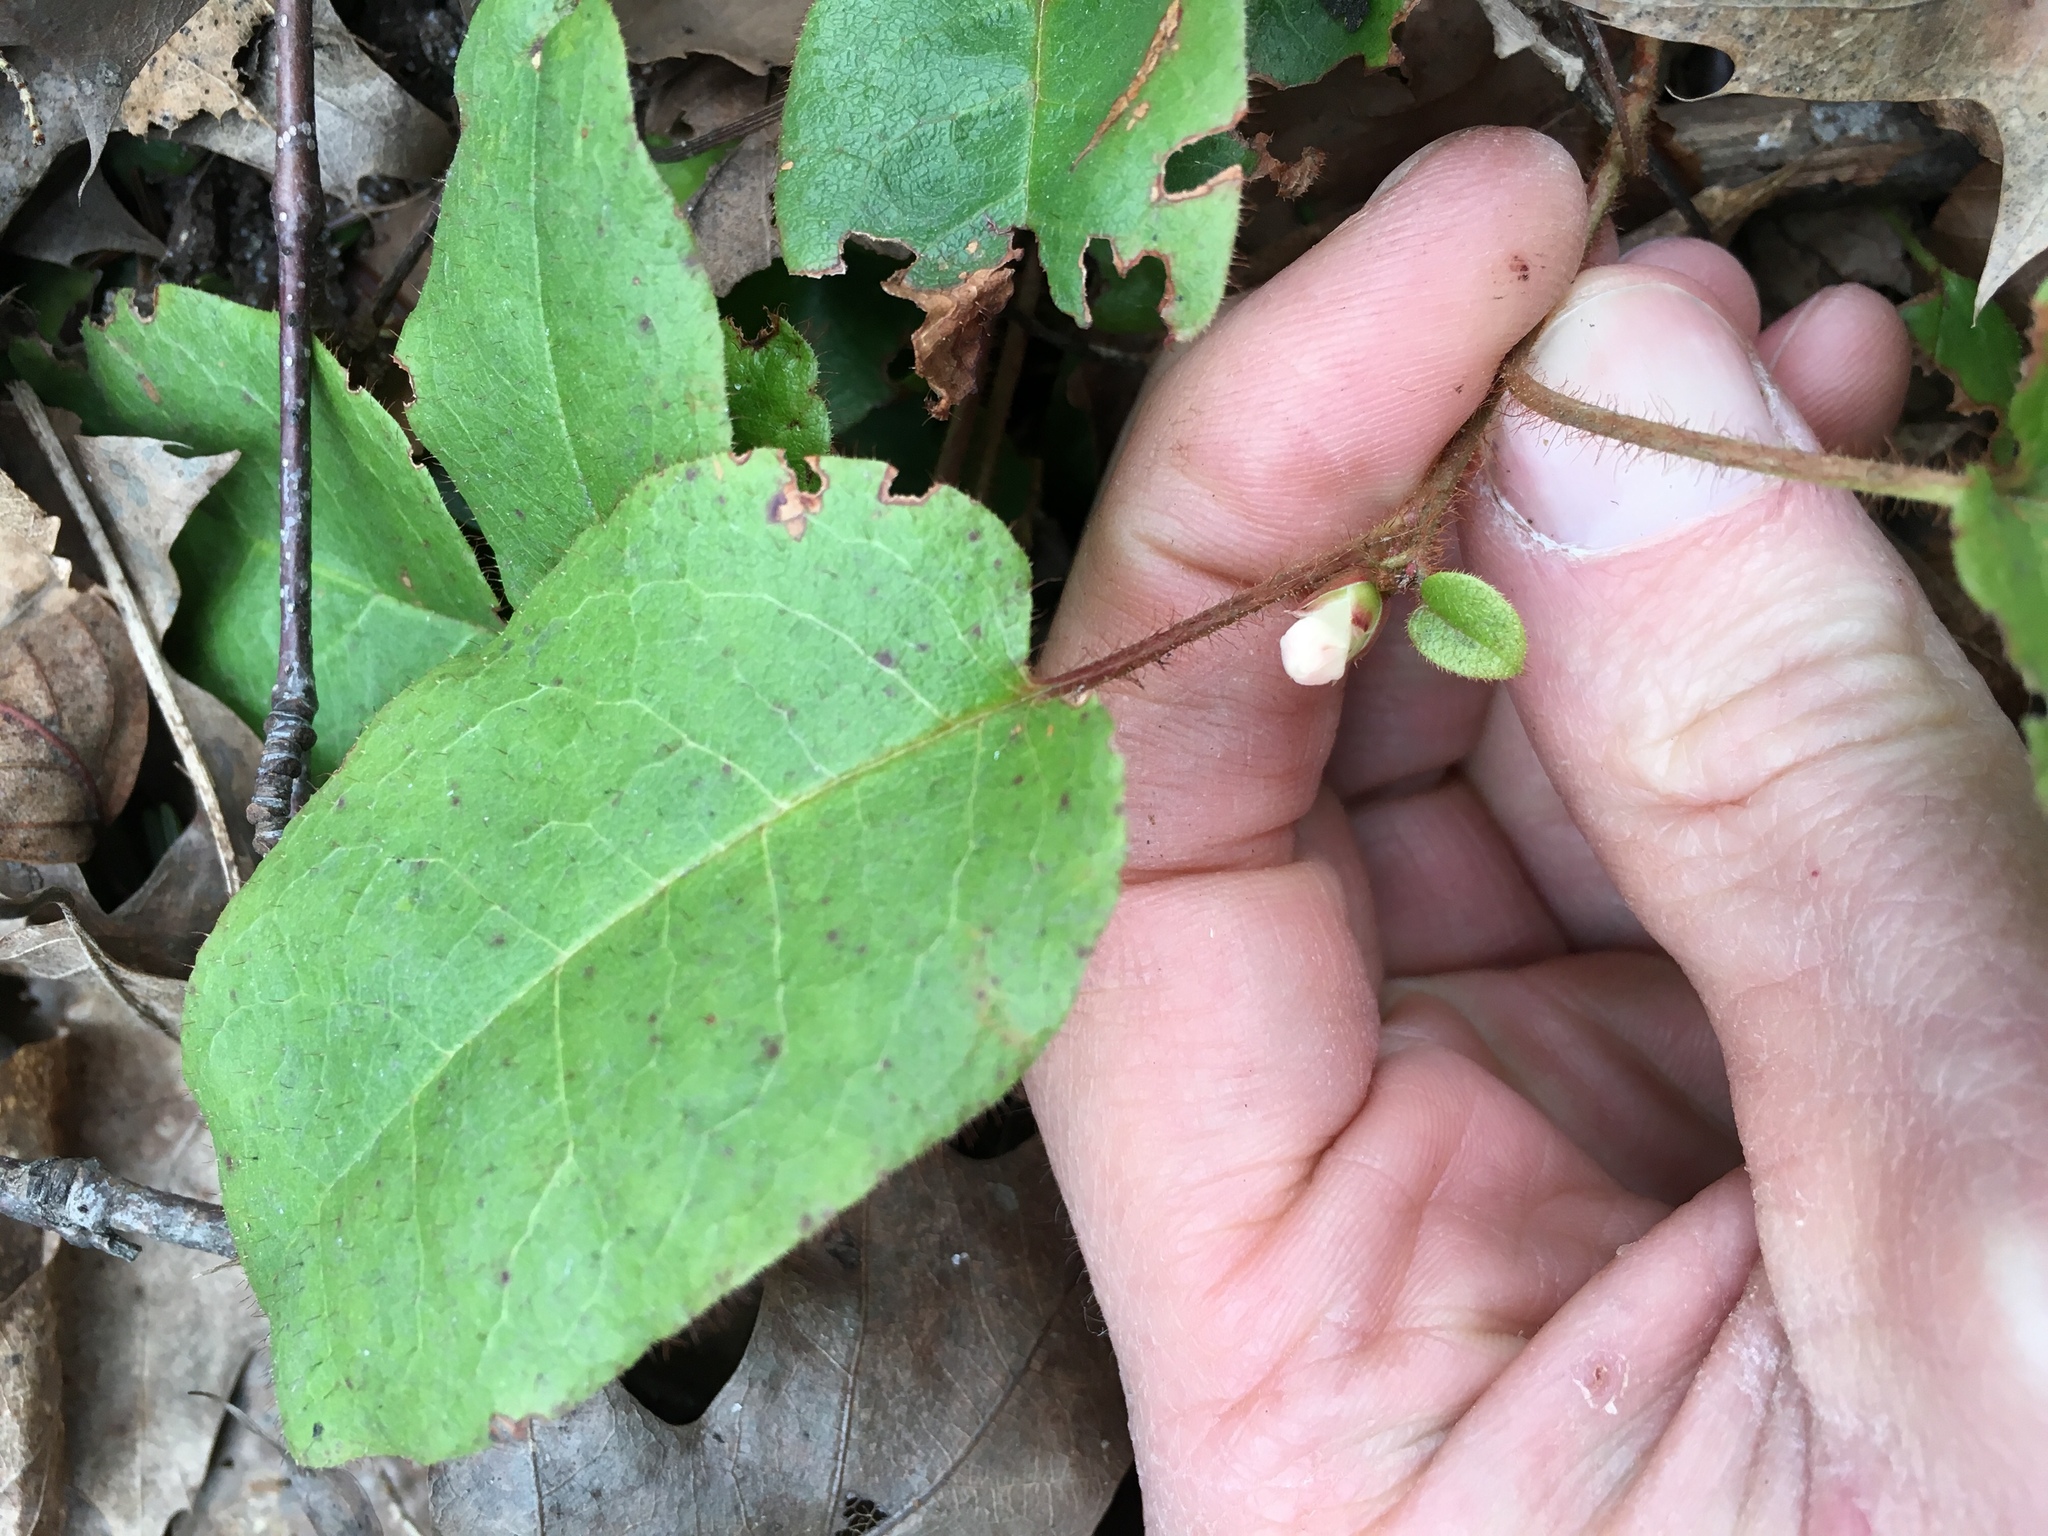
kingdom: Plantae
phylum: Tracheophyta
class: Magnoliopsida
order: Ericales
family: Ericaceae
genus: Epigaea
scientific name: Epigaea repens
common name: Gravelroot
